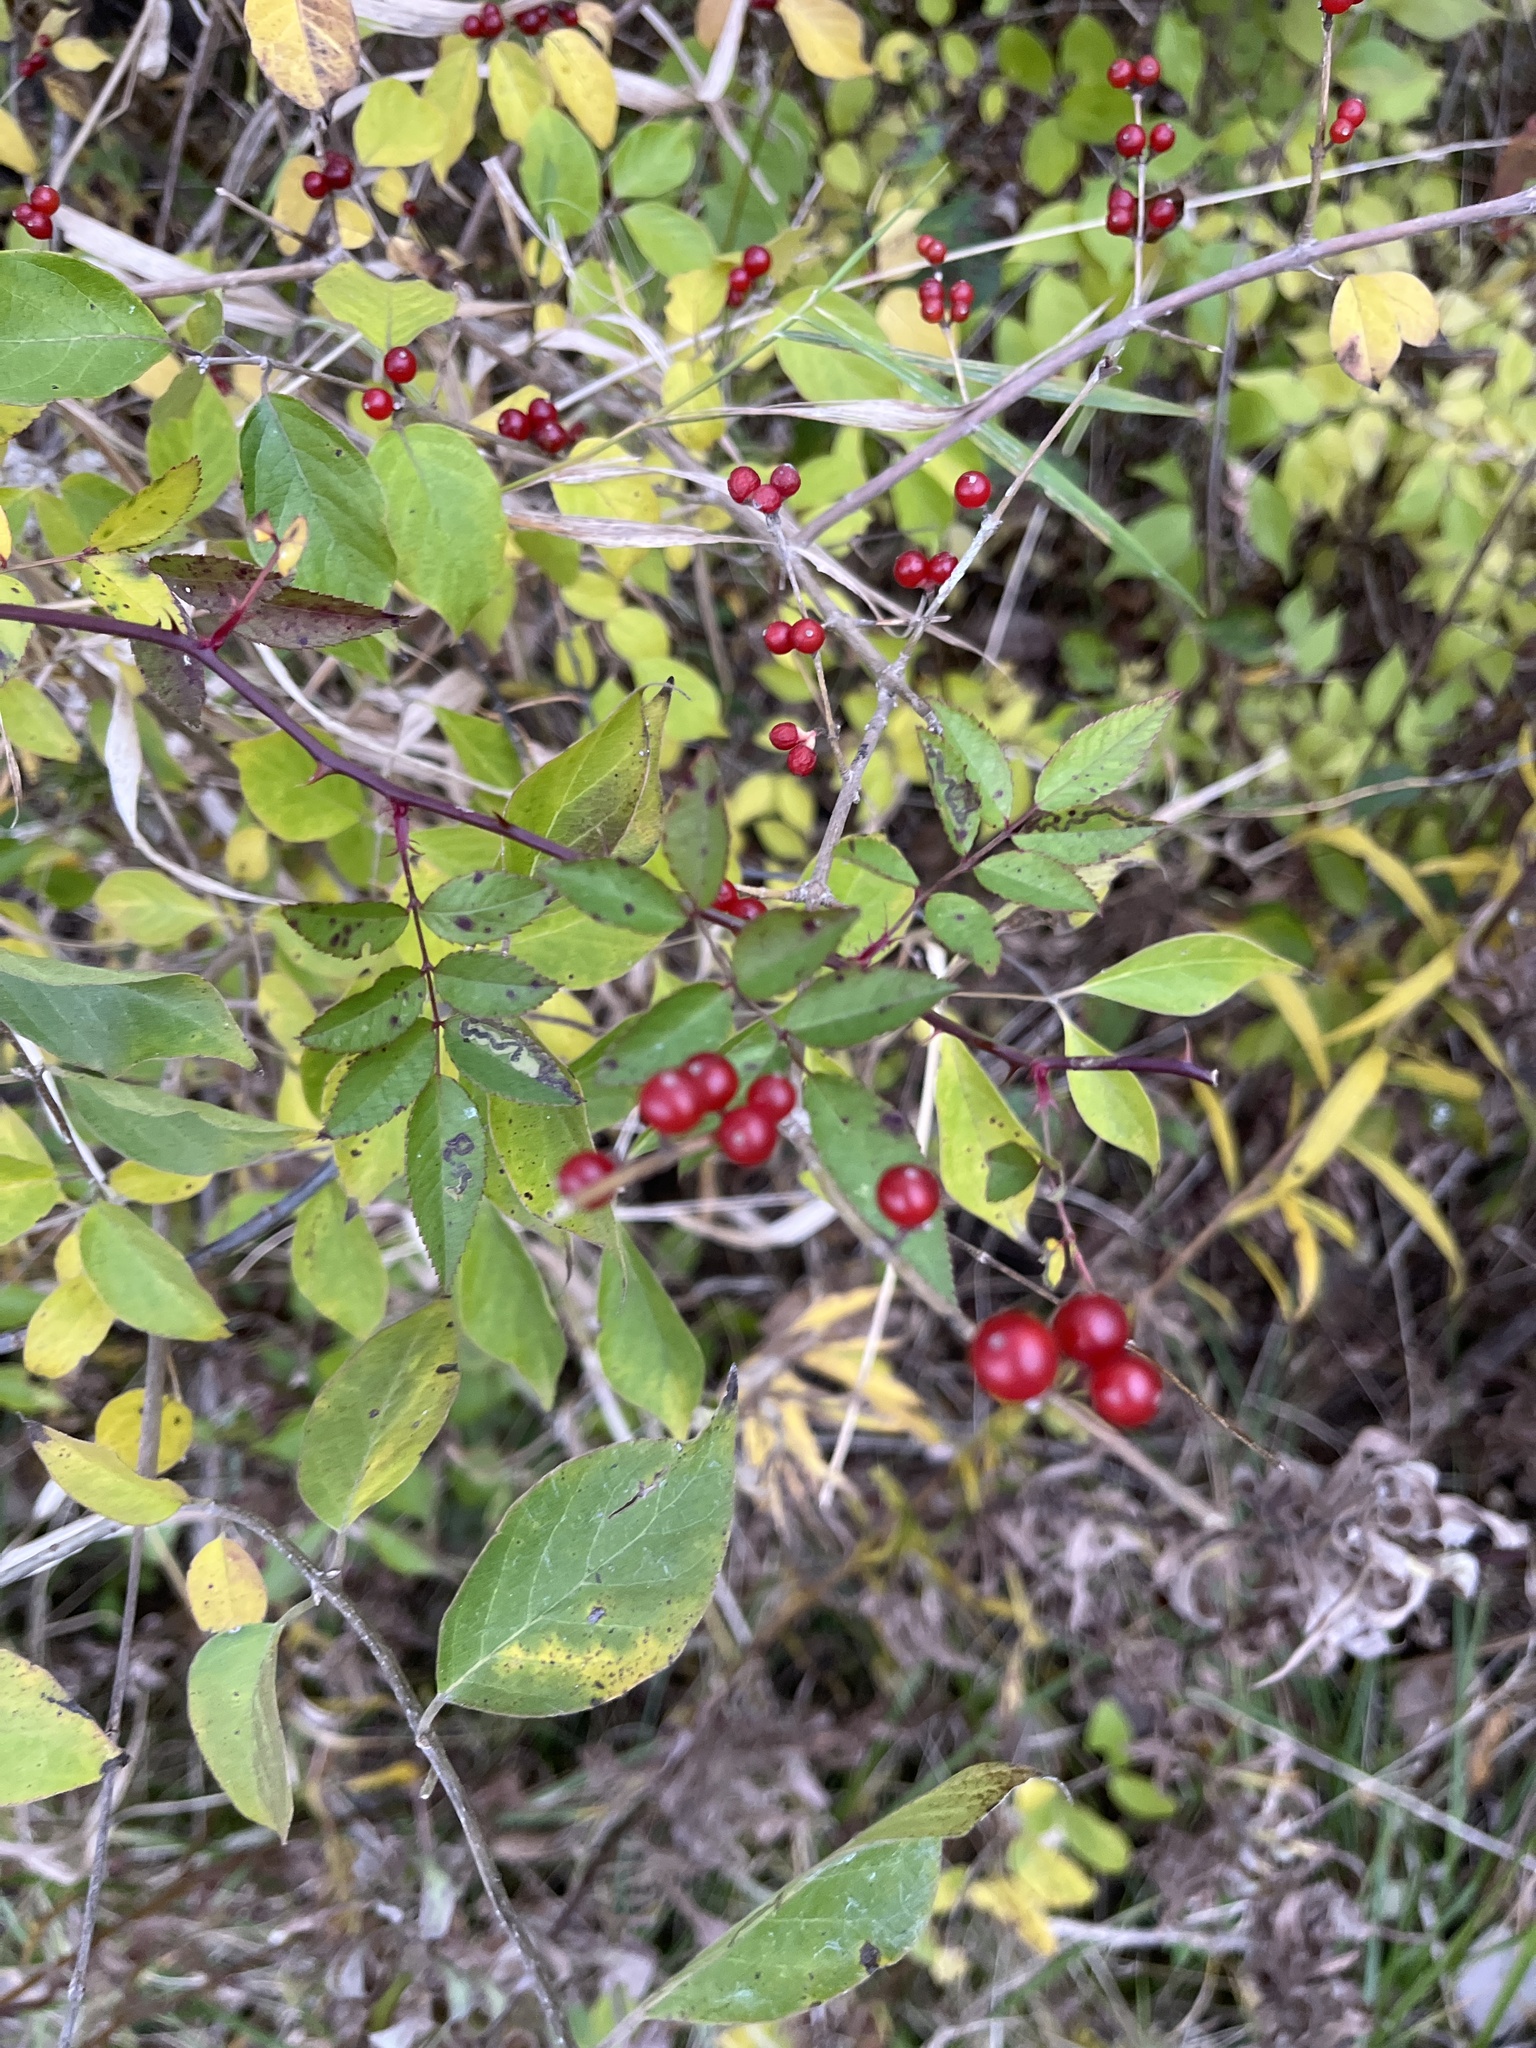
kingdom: Plantae
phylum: Tracheophyta
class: Magnoliopsida
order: Dipsacales
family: Caprifoliaceae
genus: Lonicera
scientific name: Lonicera maackii
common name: Amur honeysuckle
